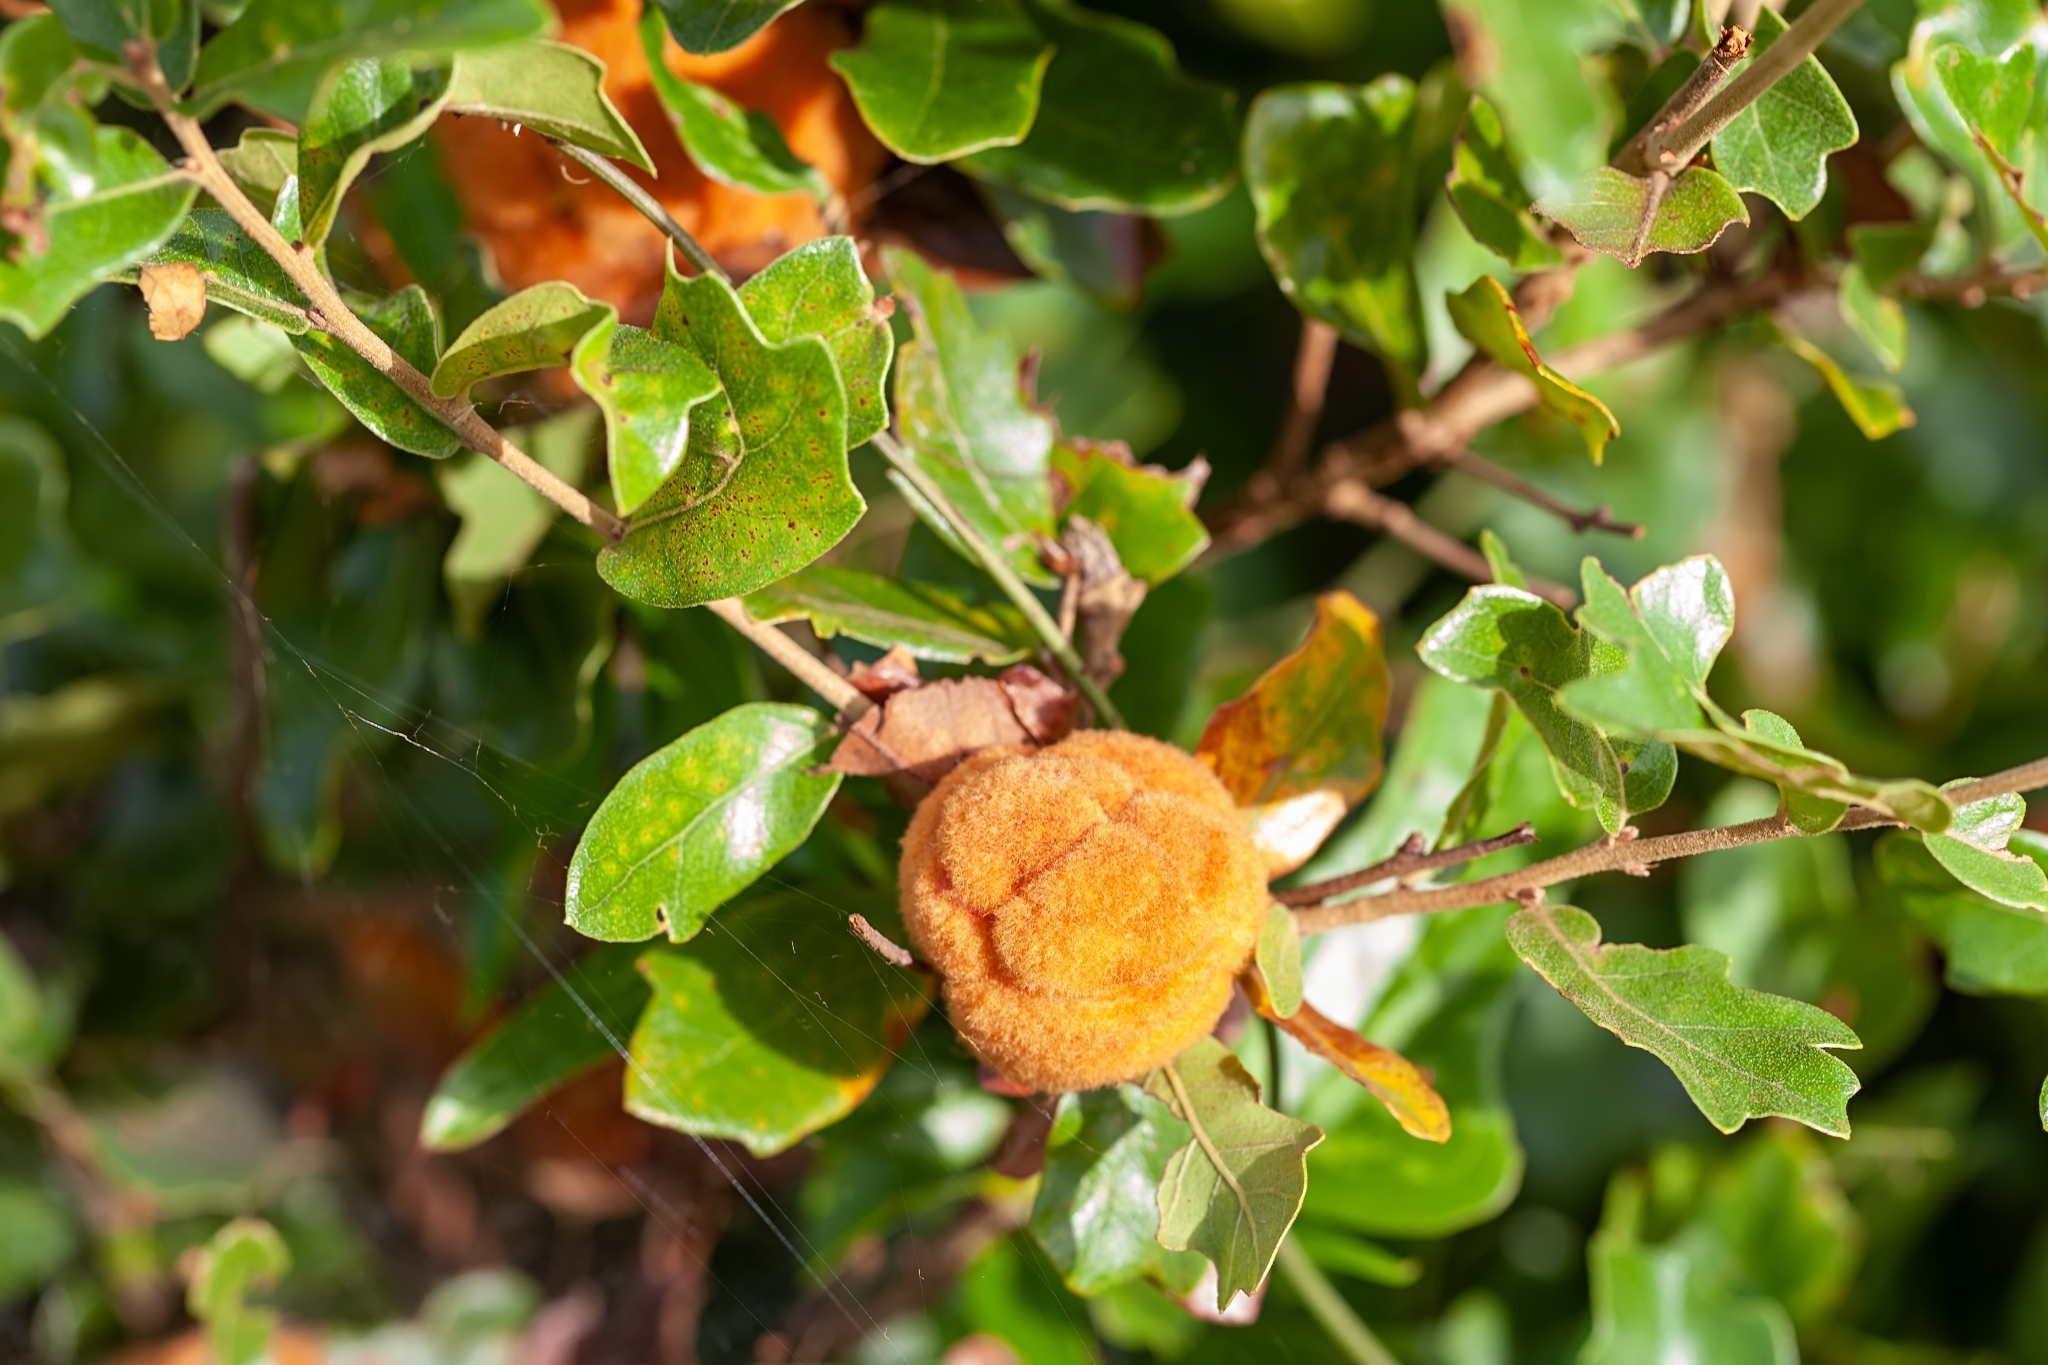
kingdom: Animalia
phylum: Arthropoda
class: Insecta
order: Hymenoptera
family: Cynipidae
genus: Disholcaspis
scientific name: Disholcaspis
